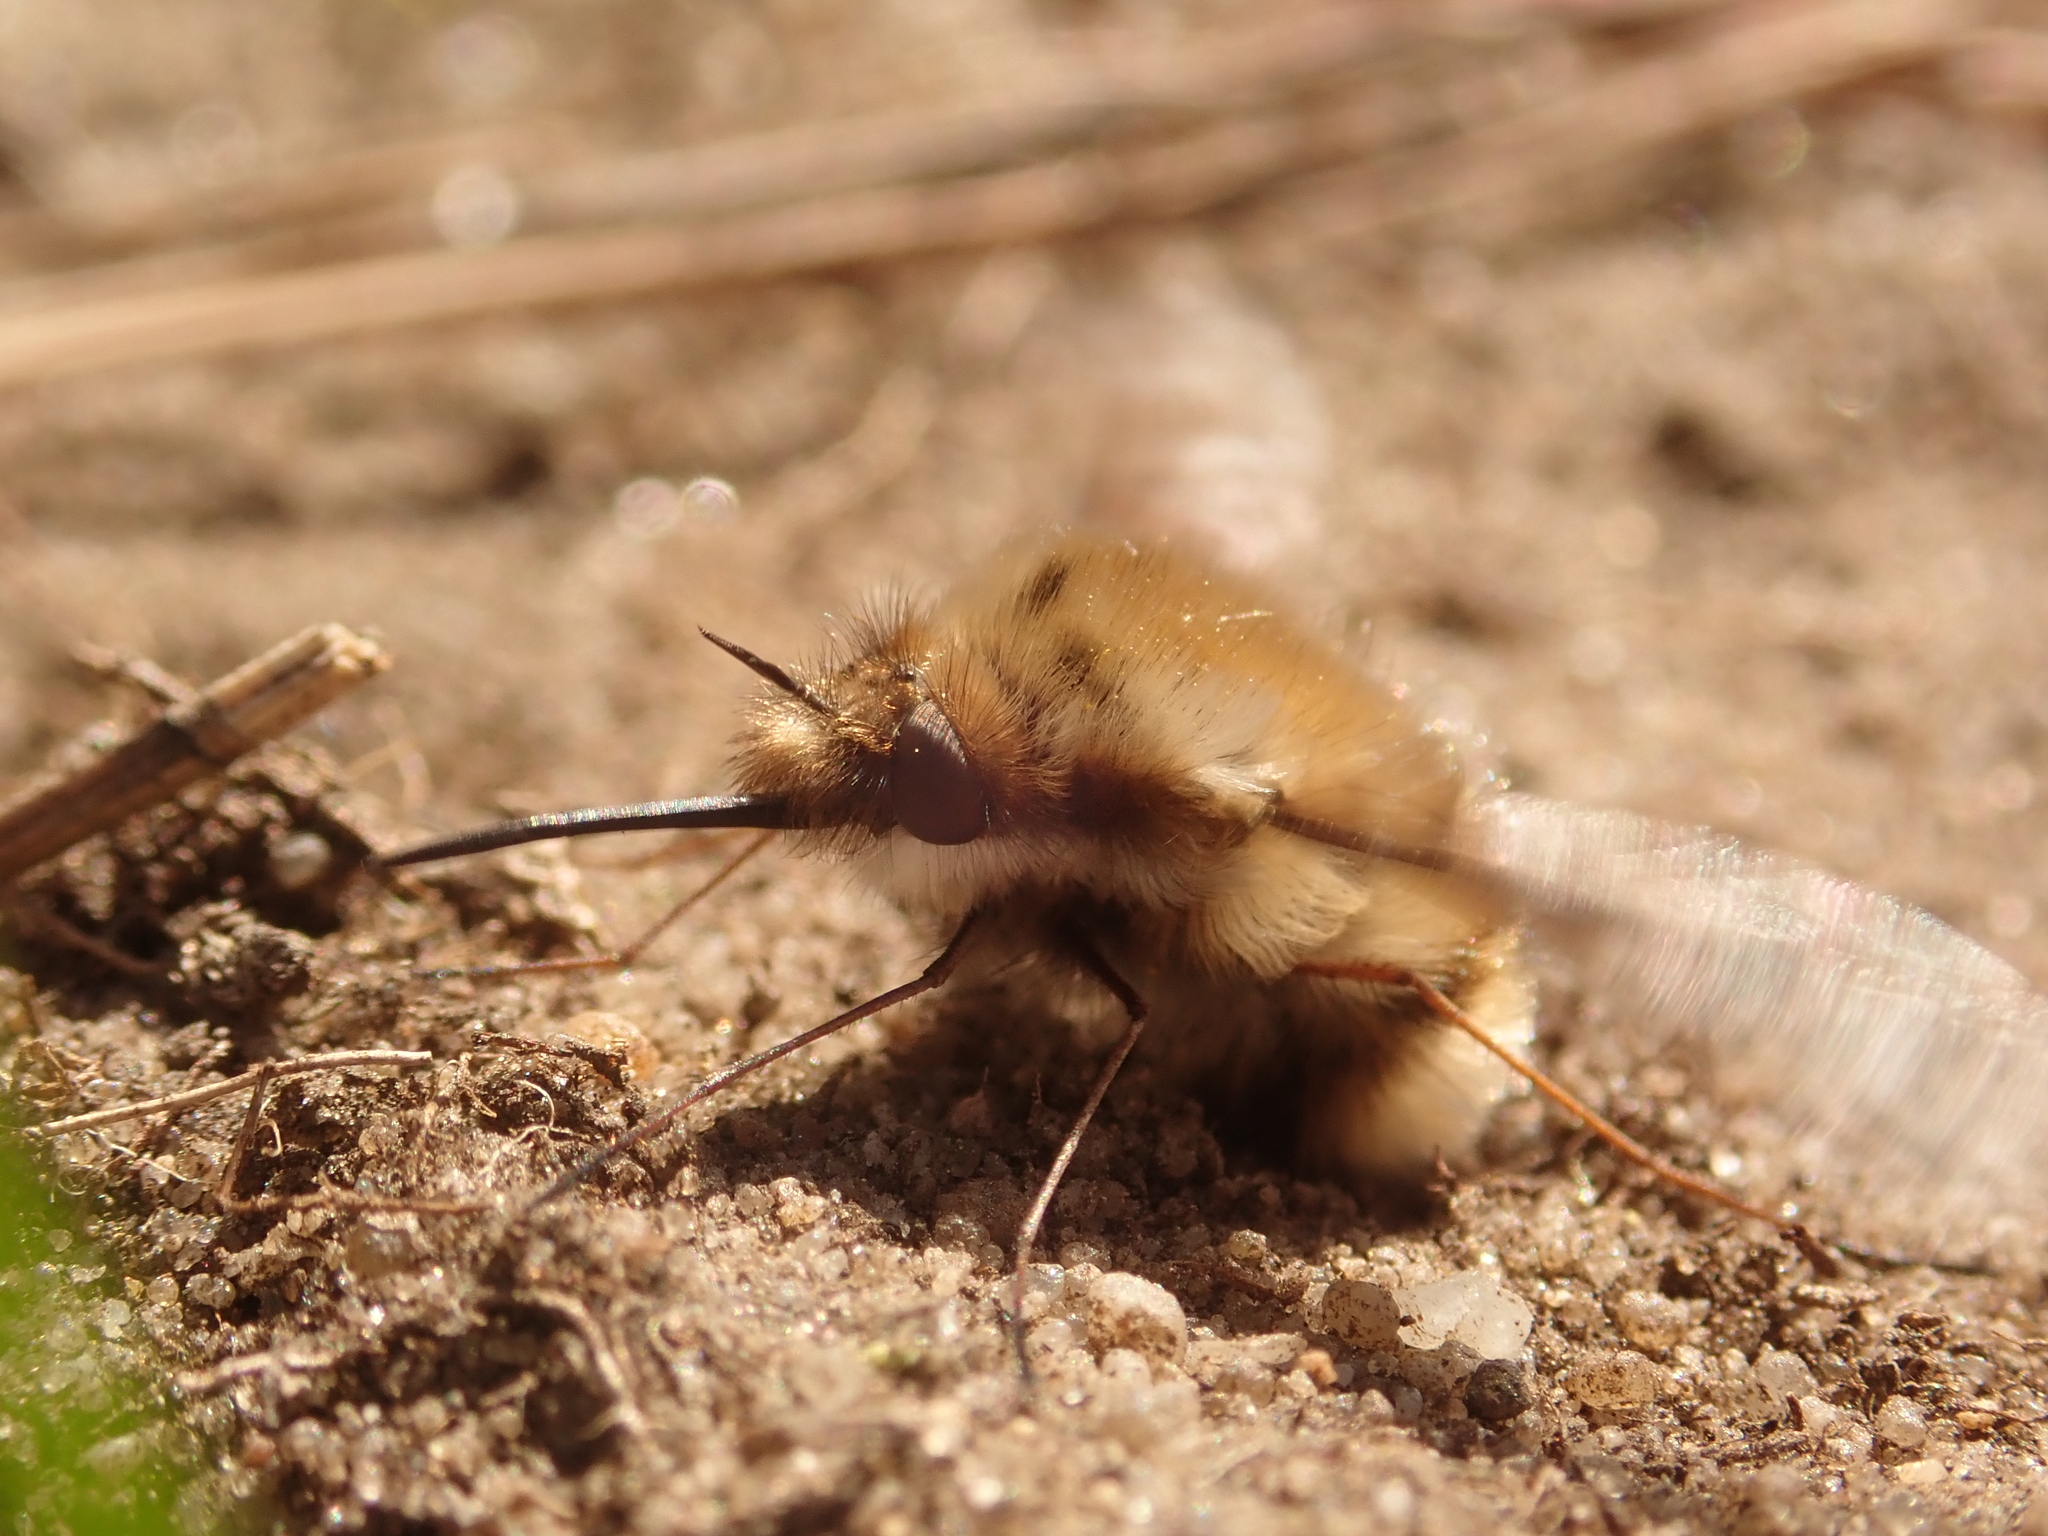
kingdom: Animalia
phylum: Arthropoda
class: Insecta
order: Diptera
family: Bombyliidae
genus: Bombylius
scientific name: Bombylius major
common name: Bee fly
